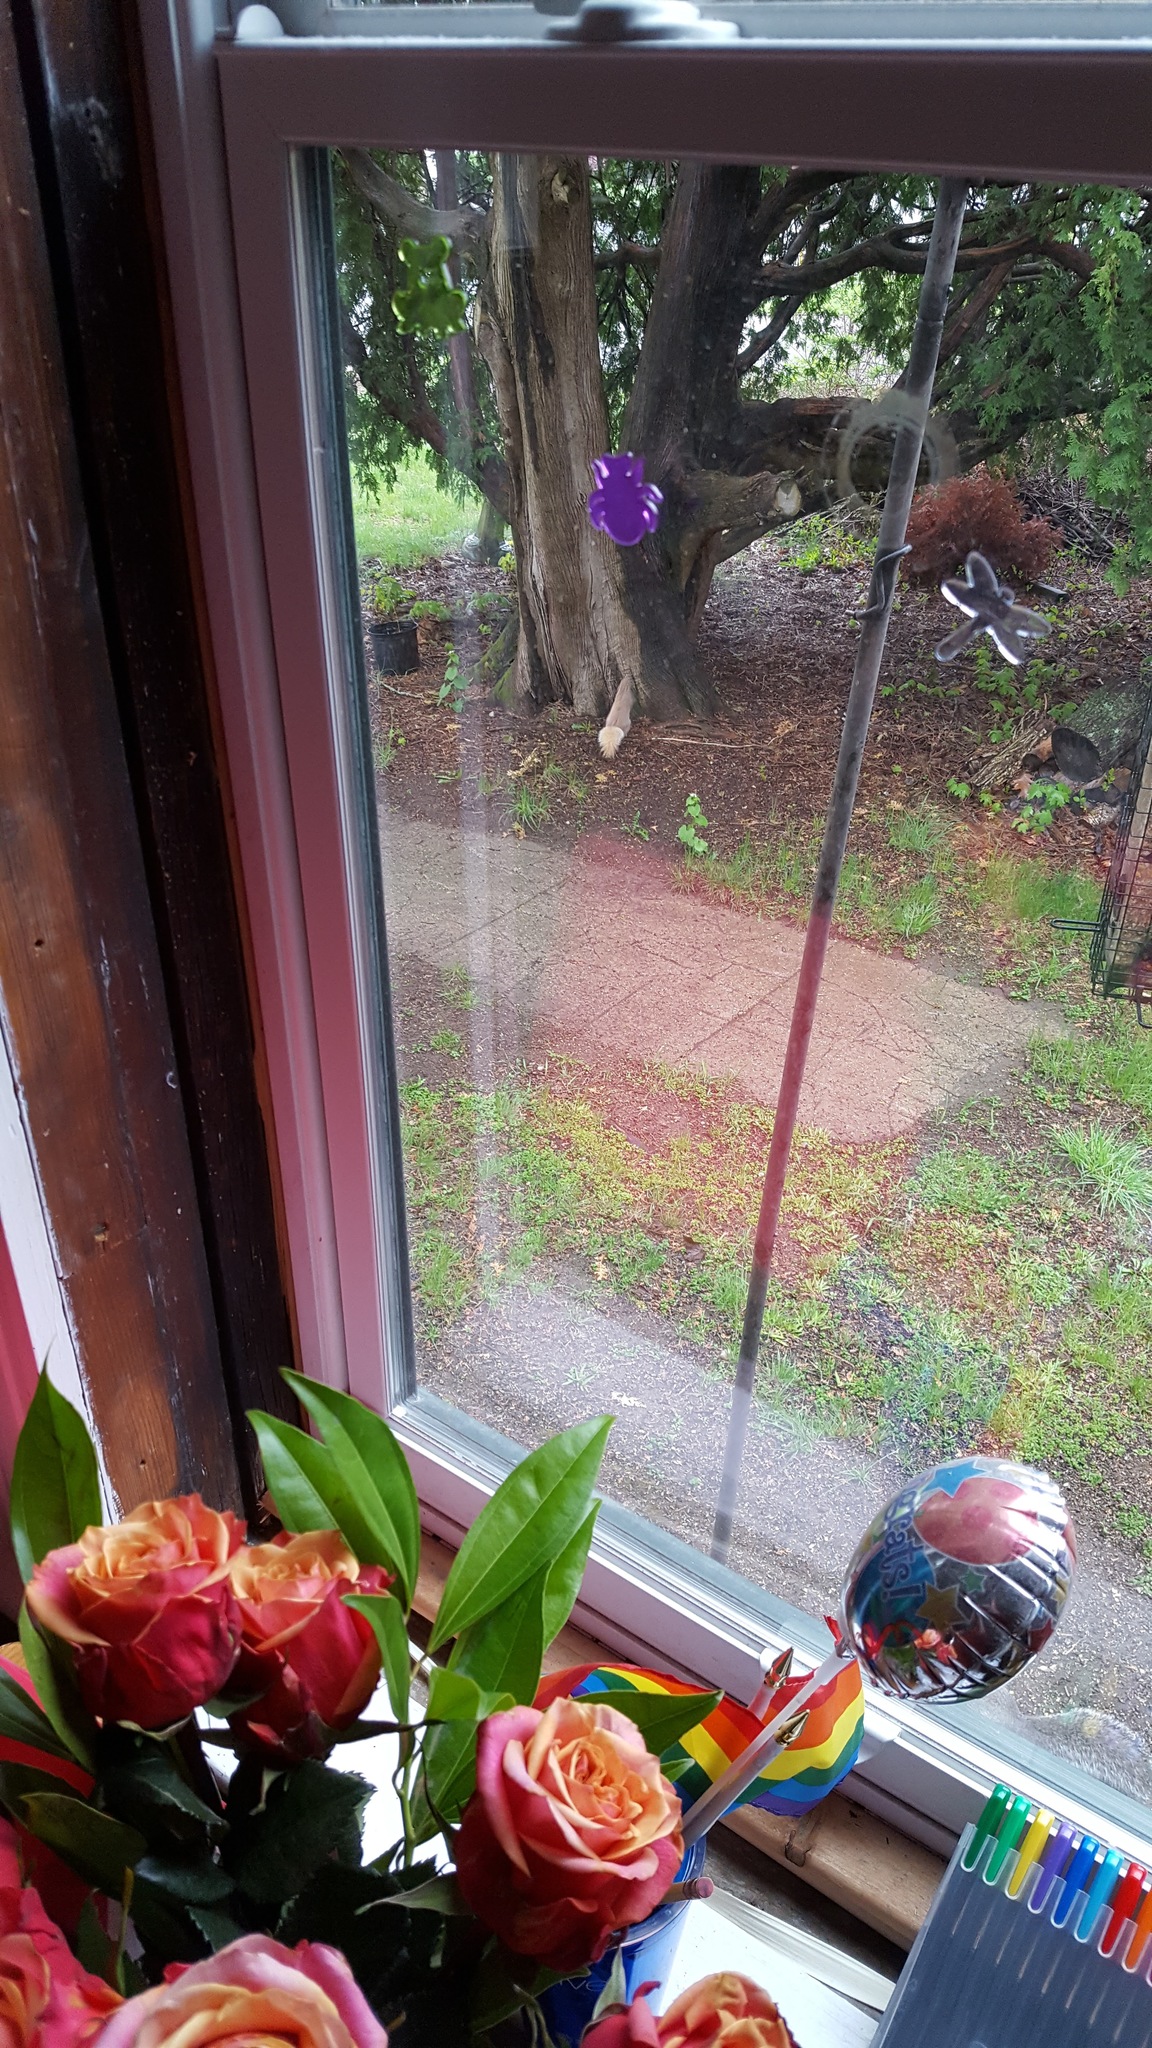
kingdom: Animalia
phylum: Chordata
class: Mammalia
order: Rodentia
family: Sciuridae
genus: Sciurus
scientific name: Sciurus carolinensis
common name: Eastern gray squirrel
